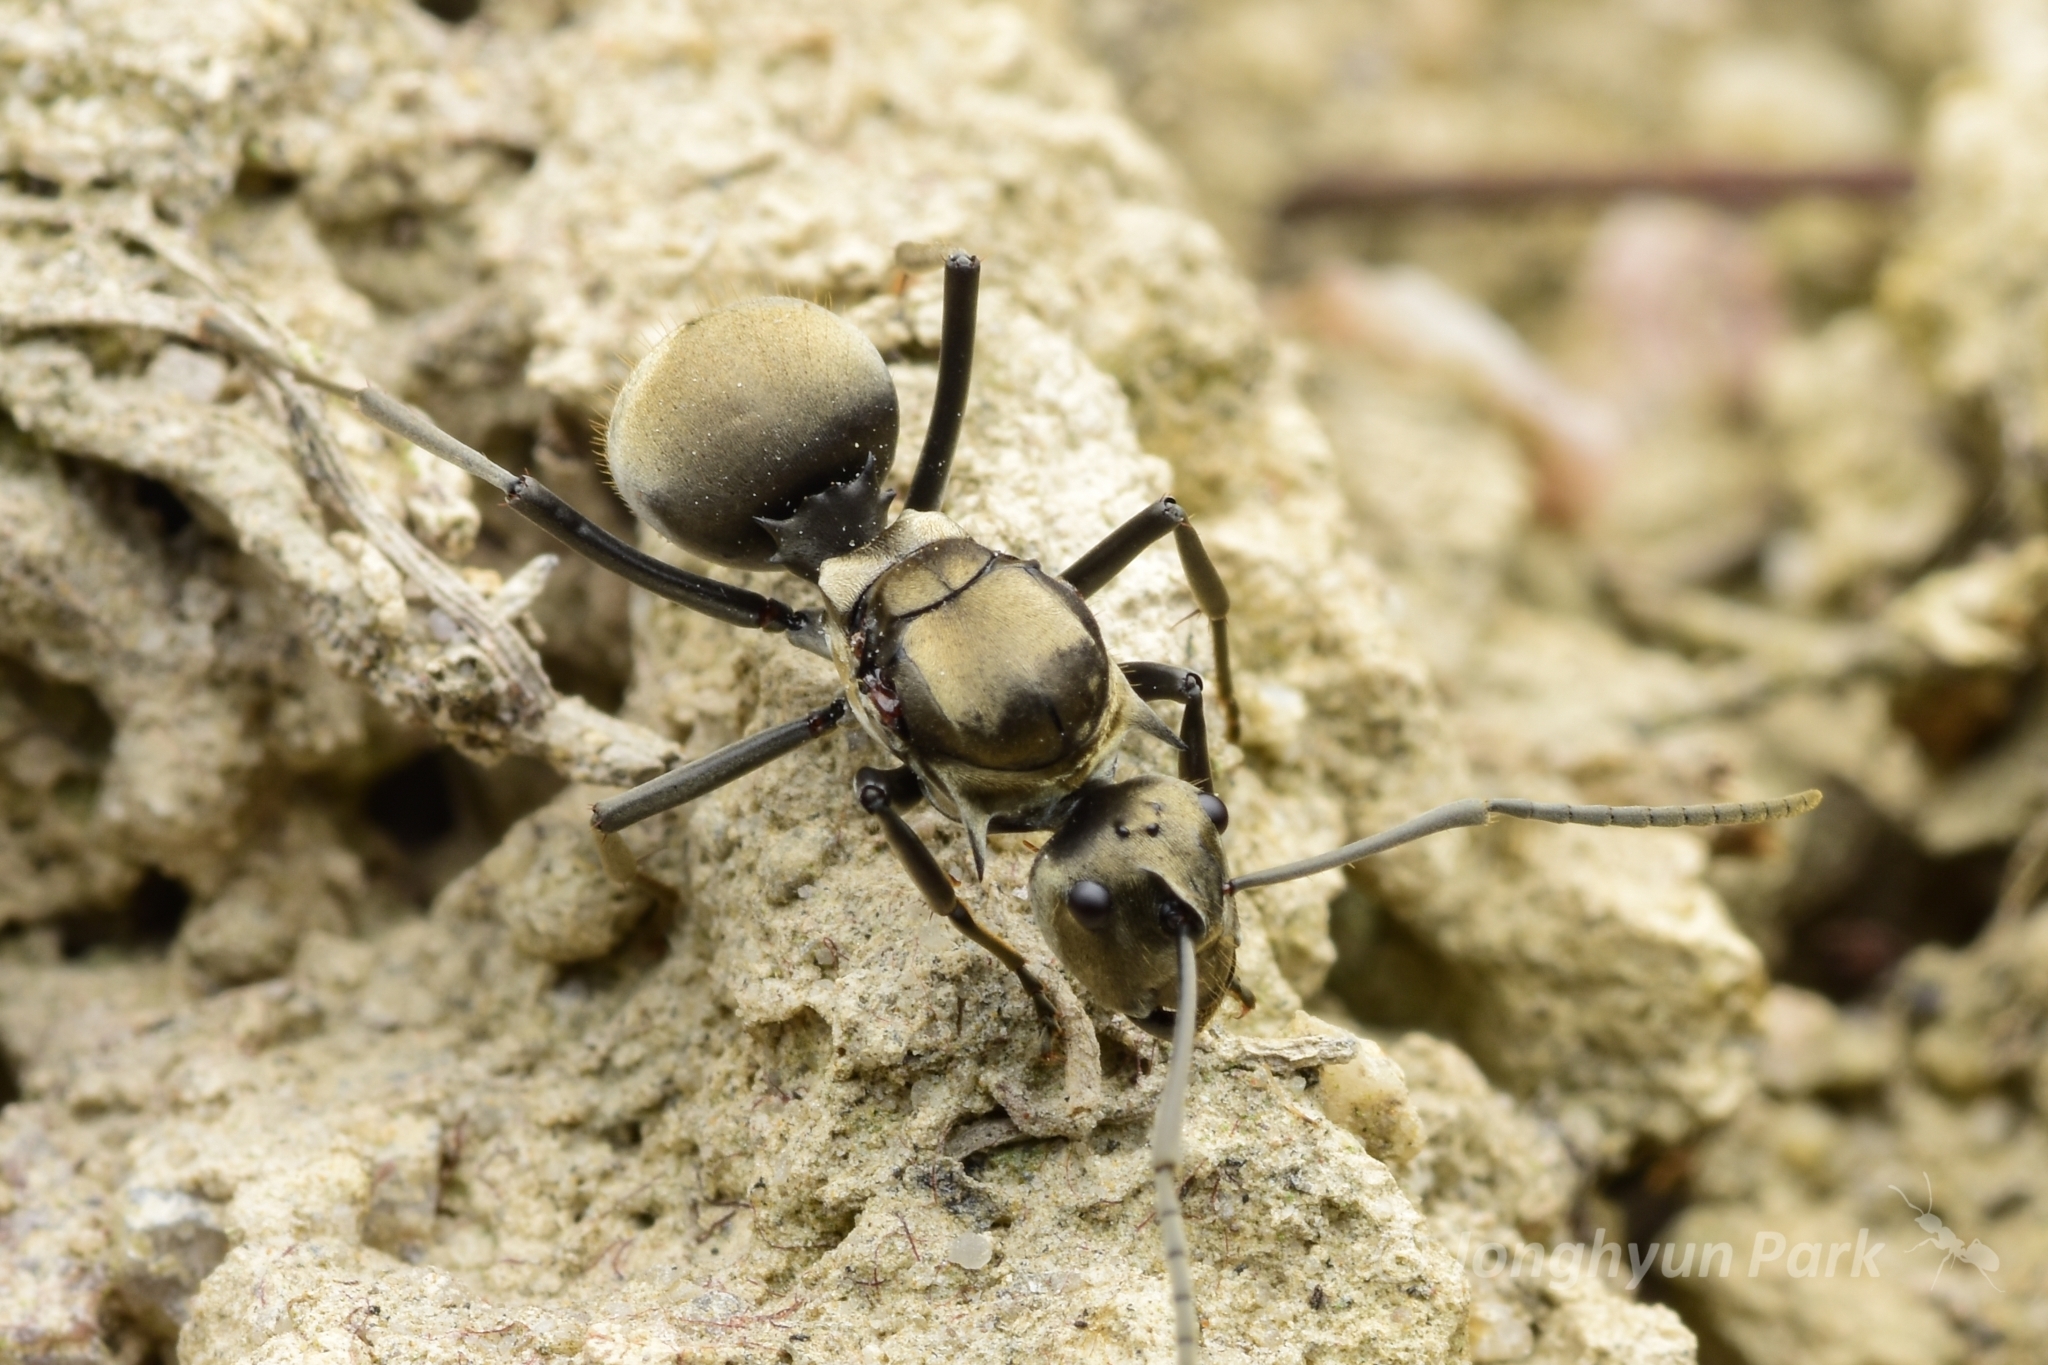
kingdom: Animalia
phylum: Arthropoda
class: Insecta
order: Hymenoptera
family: Formicidae
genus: Polyrhachis
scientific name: Polyrhachis foreli
